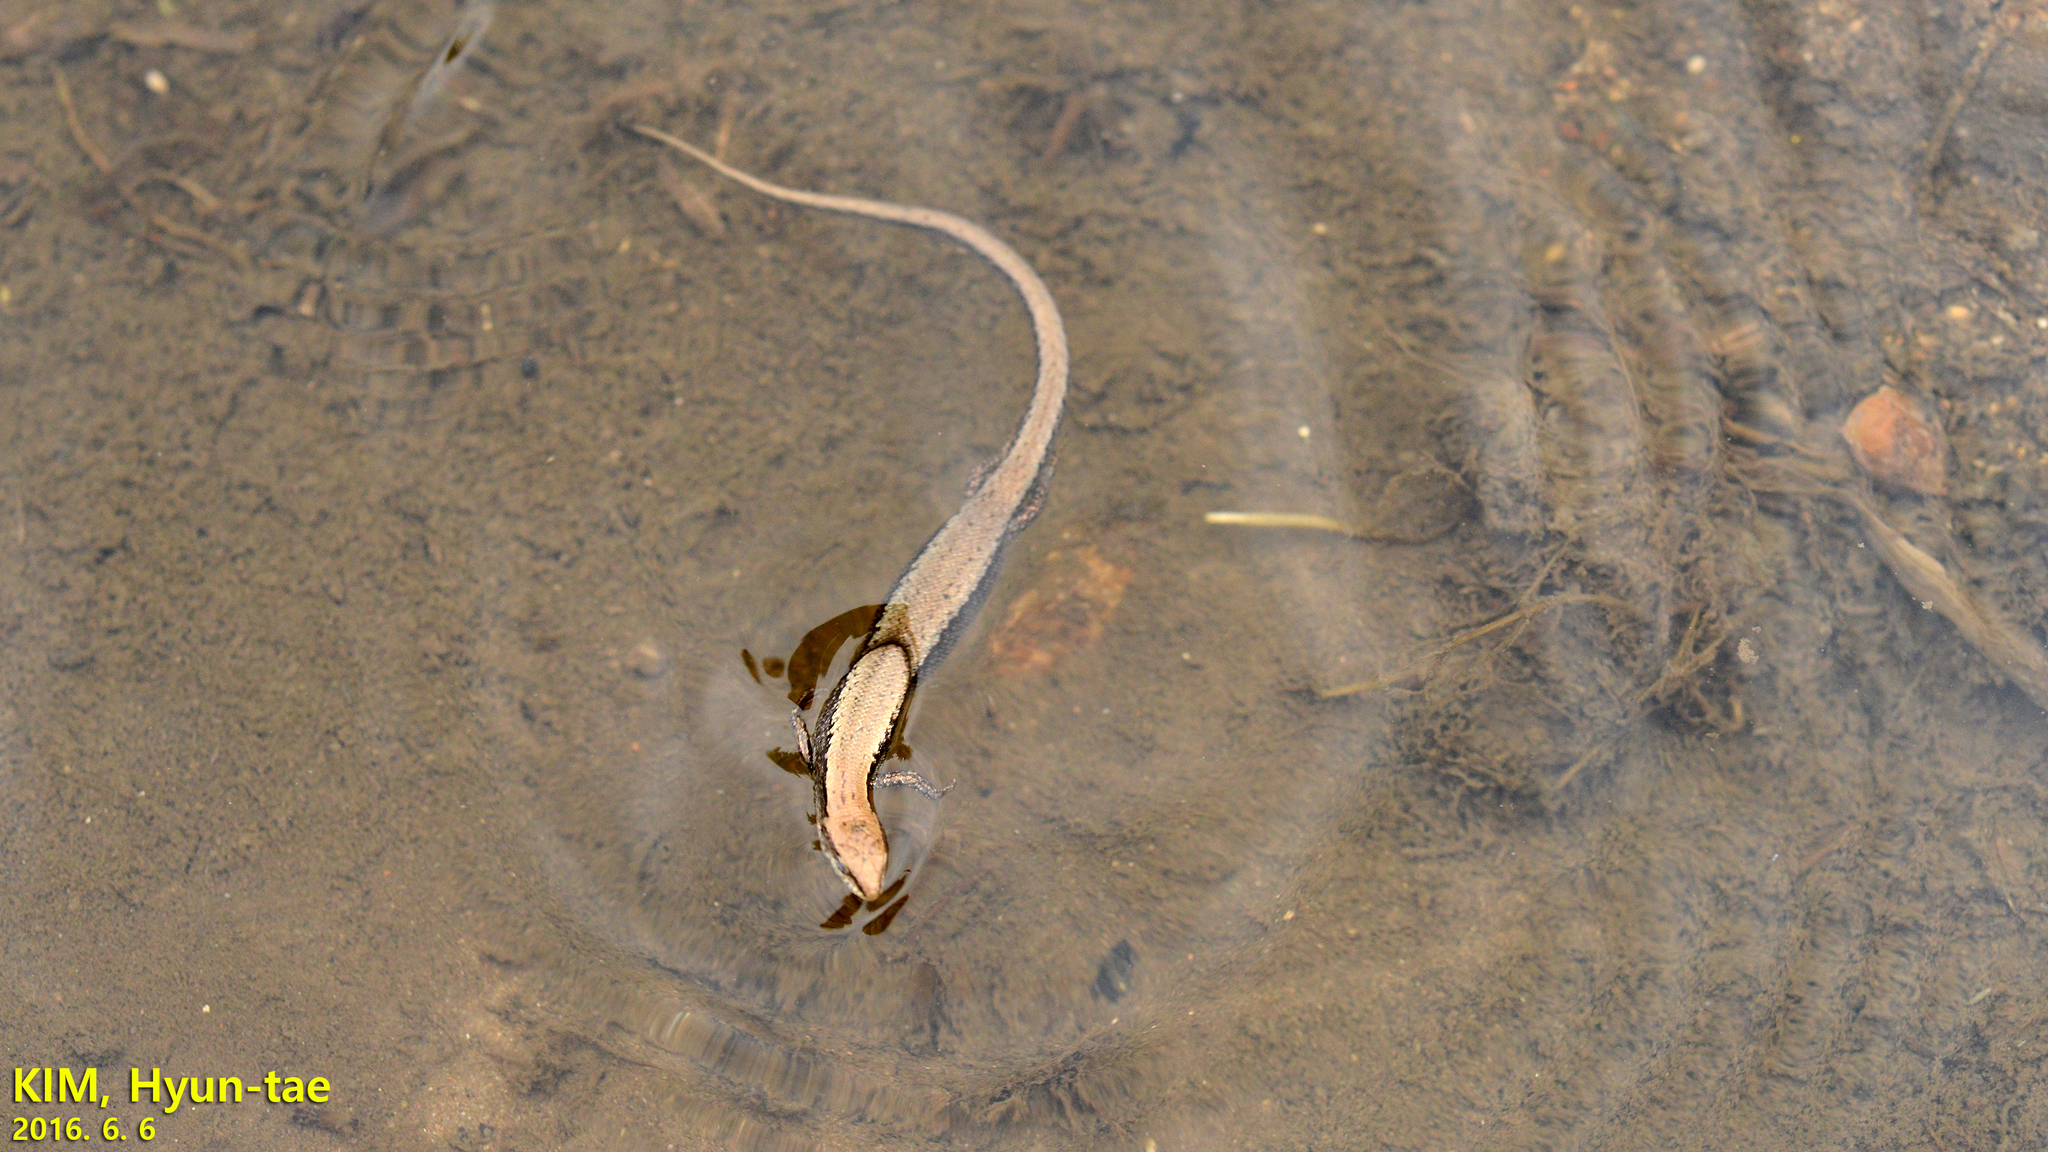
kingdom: Animalia
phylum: Chordata
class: Squamata
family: Scincidae
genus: Scincella
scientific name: Scincella vandenburghi
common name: Tsushima smooth skink
